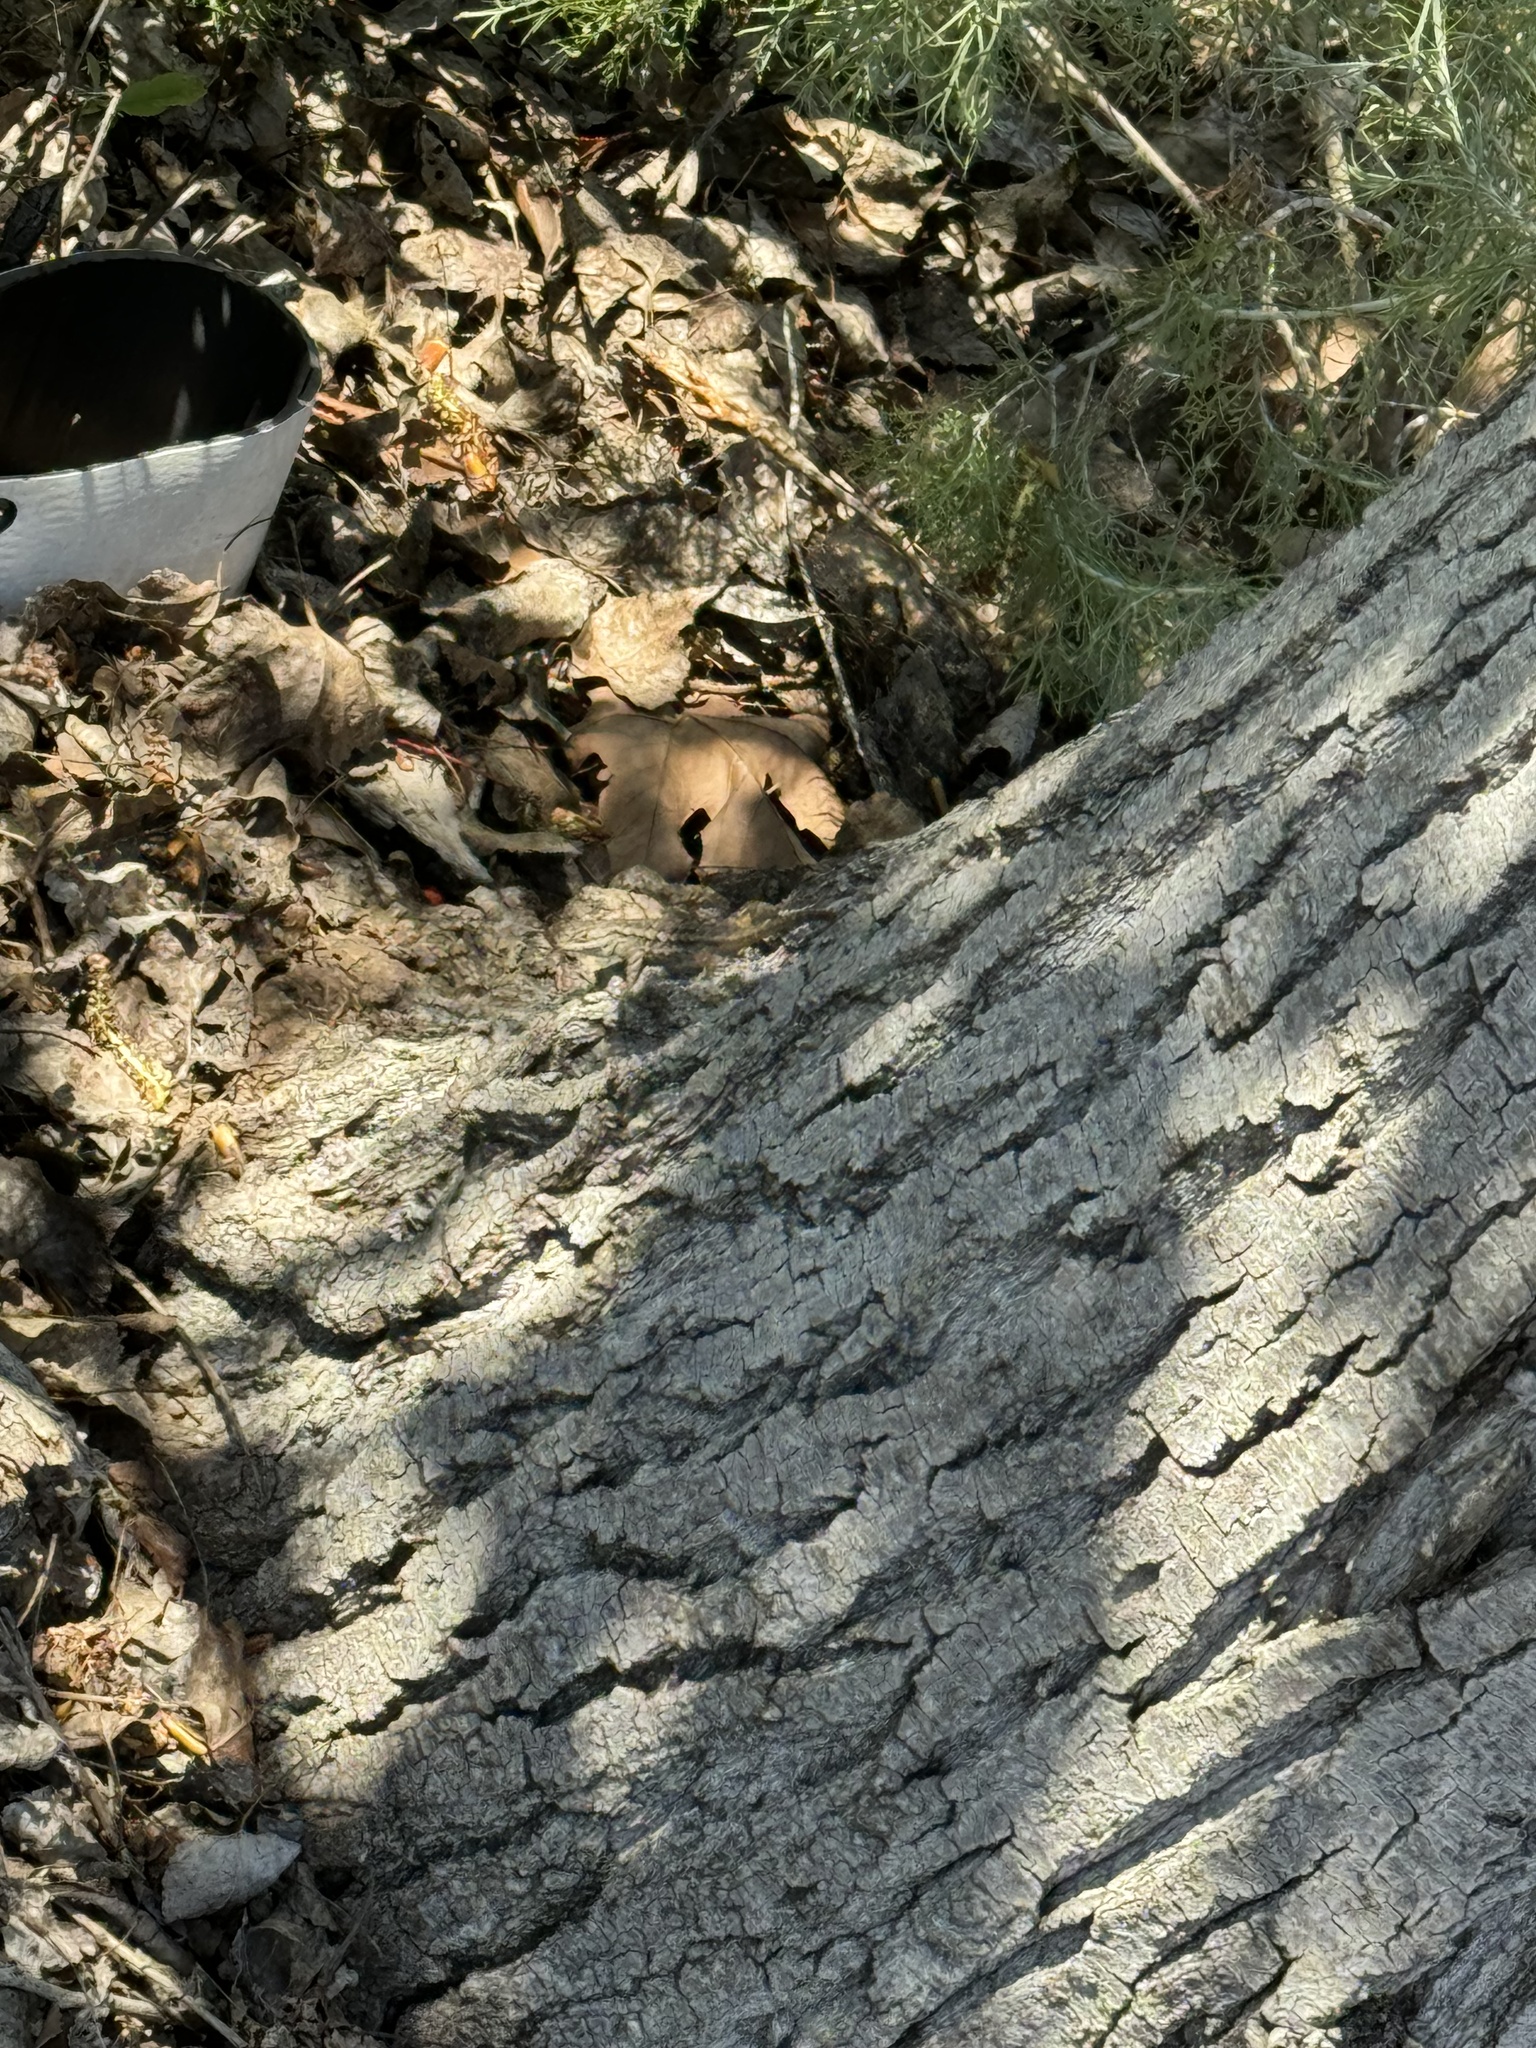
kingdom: Animalia
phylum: Chordata
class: Squamata
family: Phrynosomatidae
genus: Sceloporus
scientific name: Sceloporus occidentalis
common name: Western fence lizard
